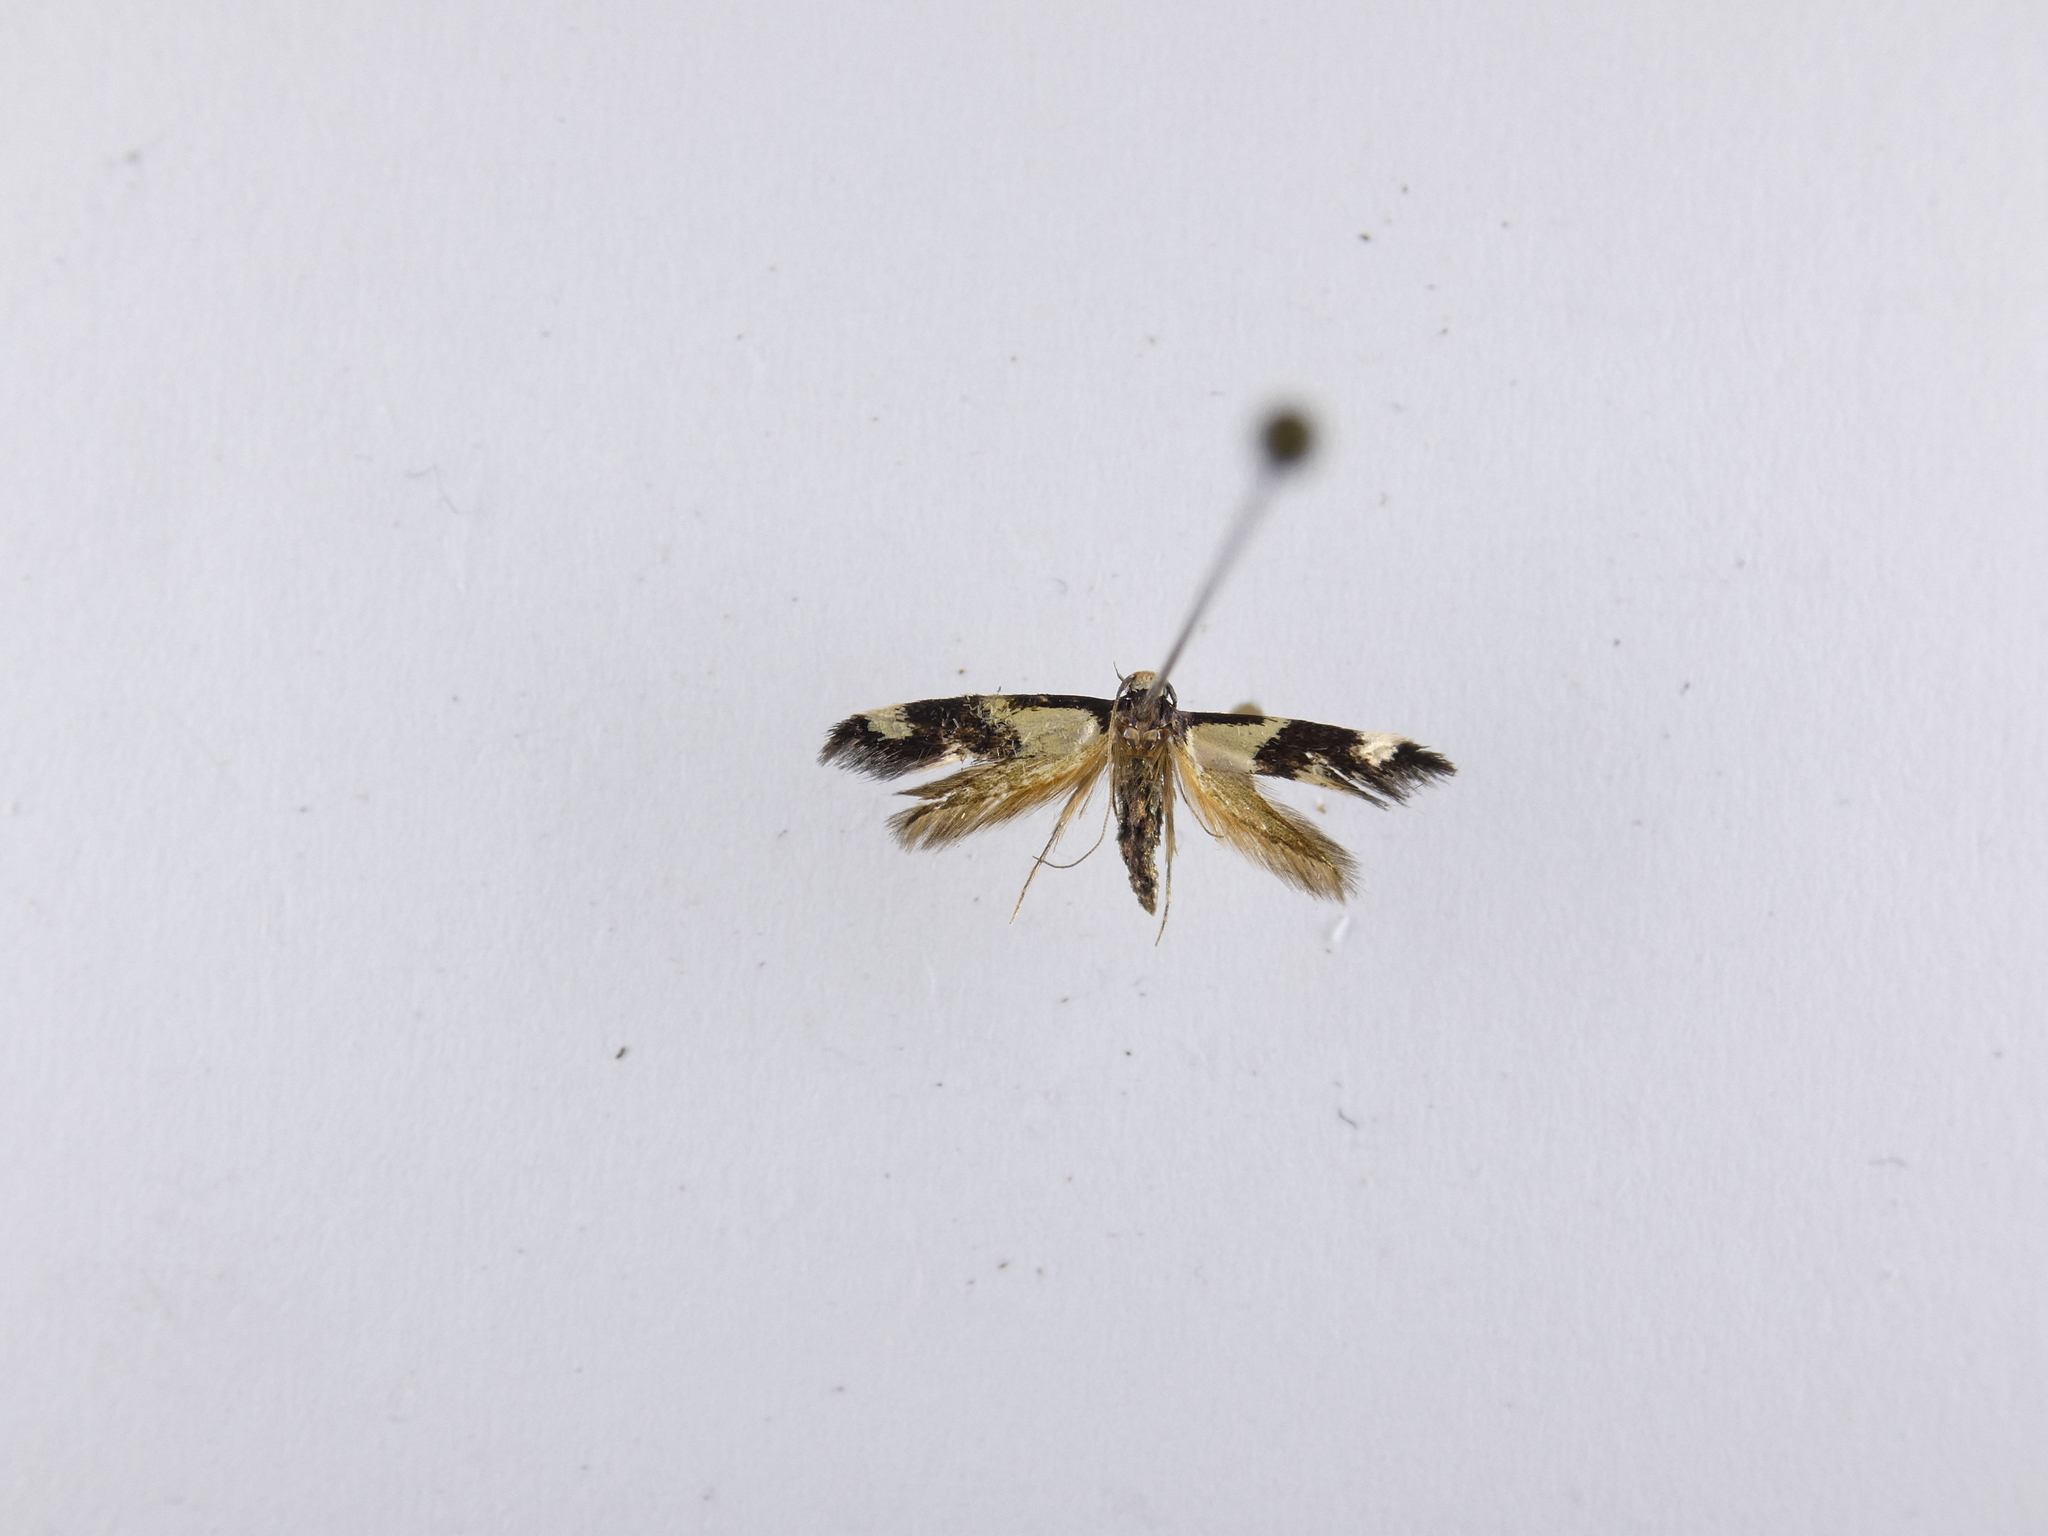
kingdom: Animalia
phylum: Arthropoda
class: Insecta
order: Lepidoptera
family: Tineidae
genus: Opogona
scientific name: Opogona comptella
